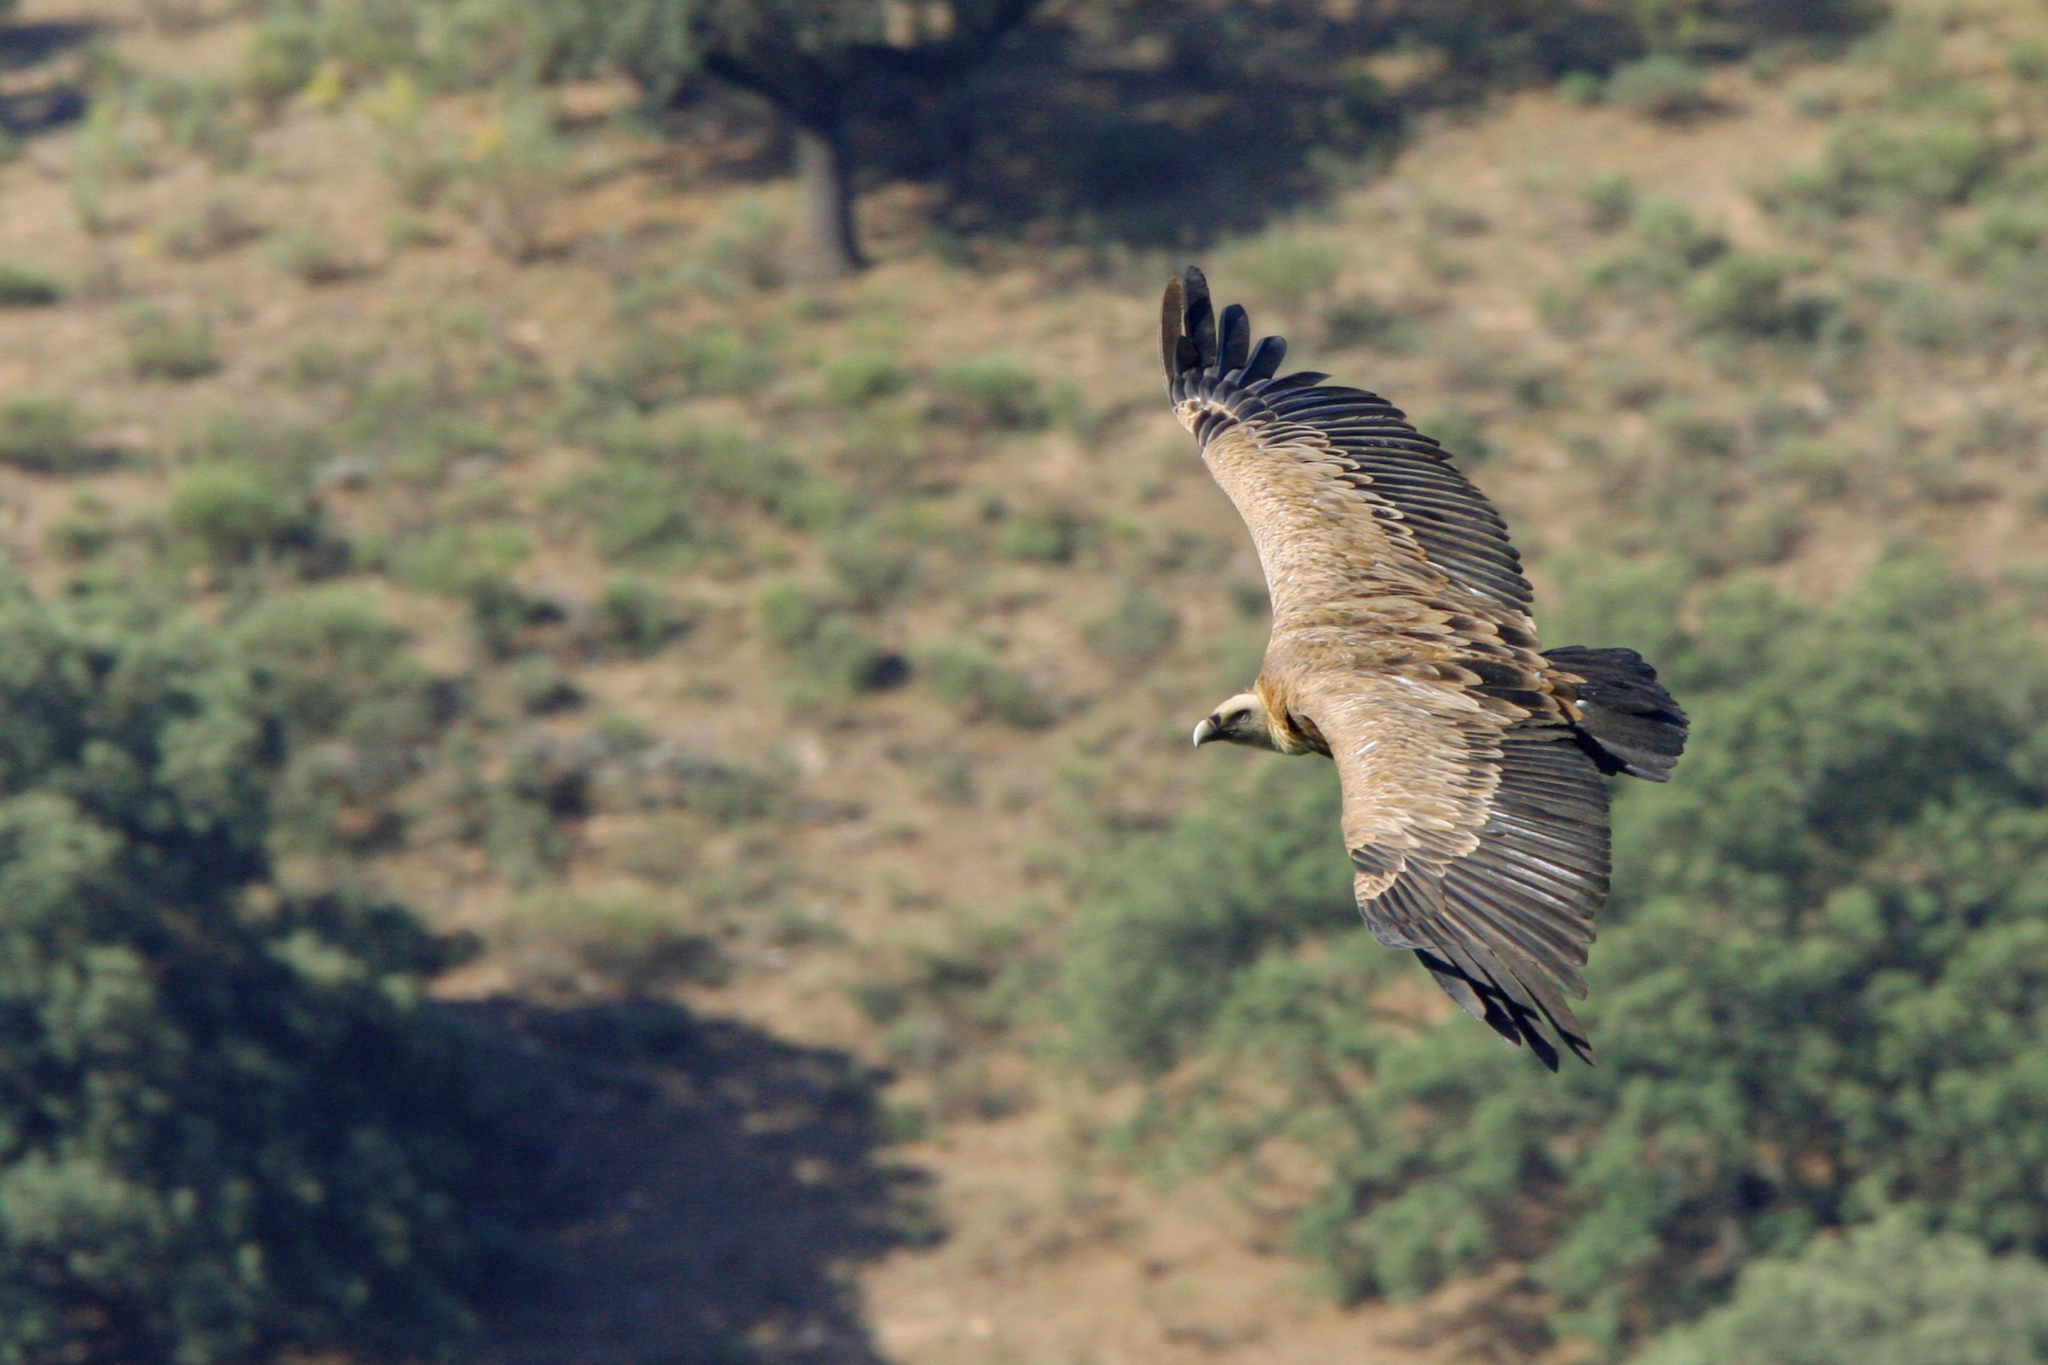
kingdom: Animalia
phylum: Chordata
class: Aves
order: Accipitriformes
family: Accipitridae
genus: Gyps
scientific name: Gyps fulvus
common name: Griffon vulture
